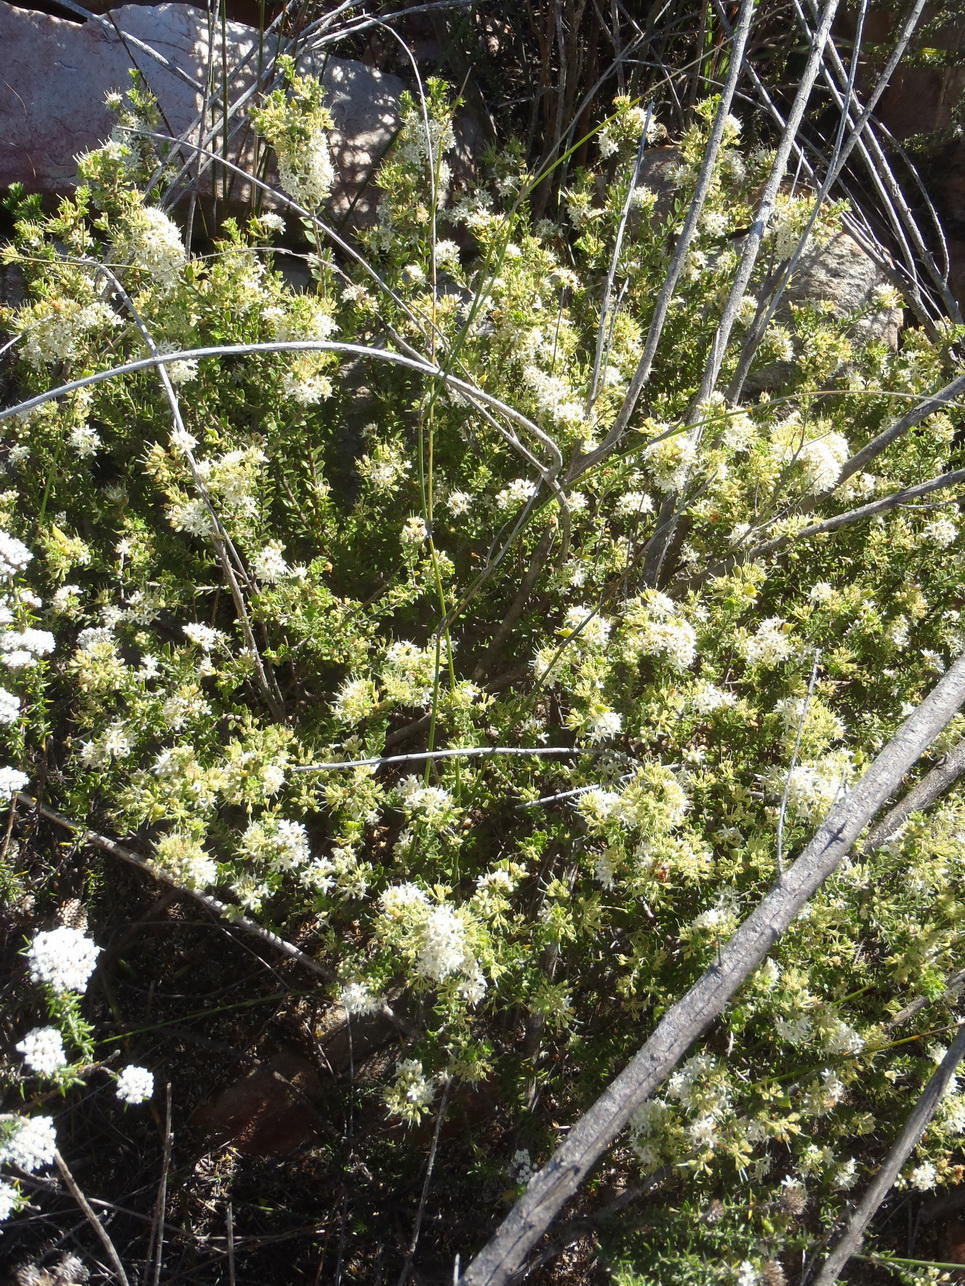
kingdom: Plantae
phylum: Tracheophyta
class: Magnoliopsida
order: Sapindales
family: Rutaceae
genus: Agathosma
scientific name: Agathosma recurvifolia
